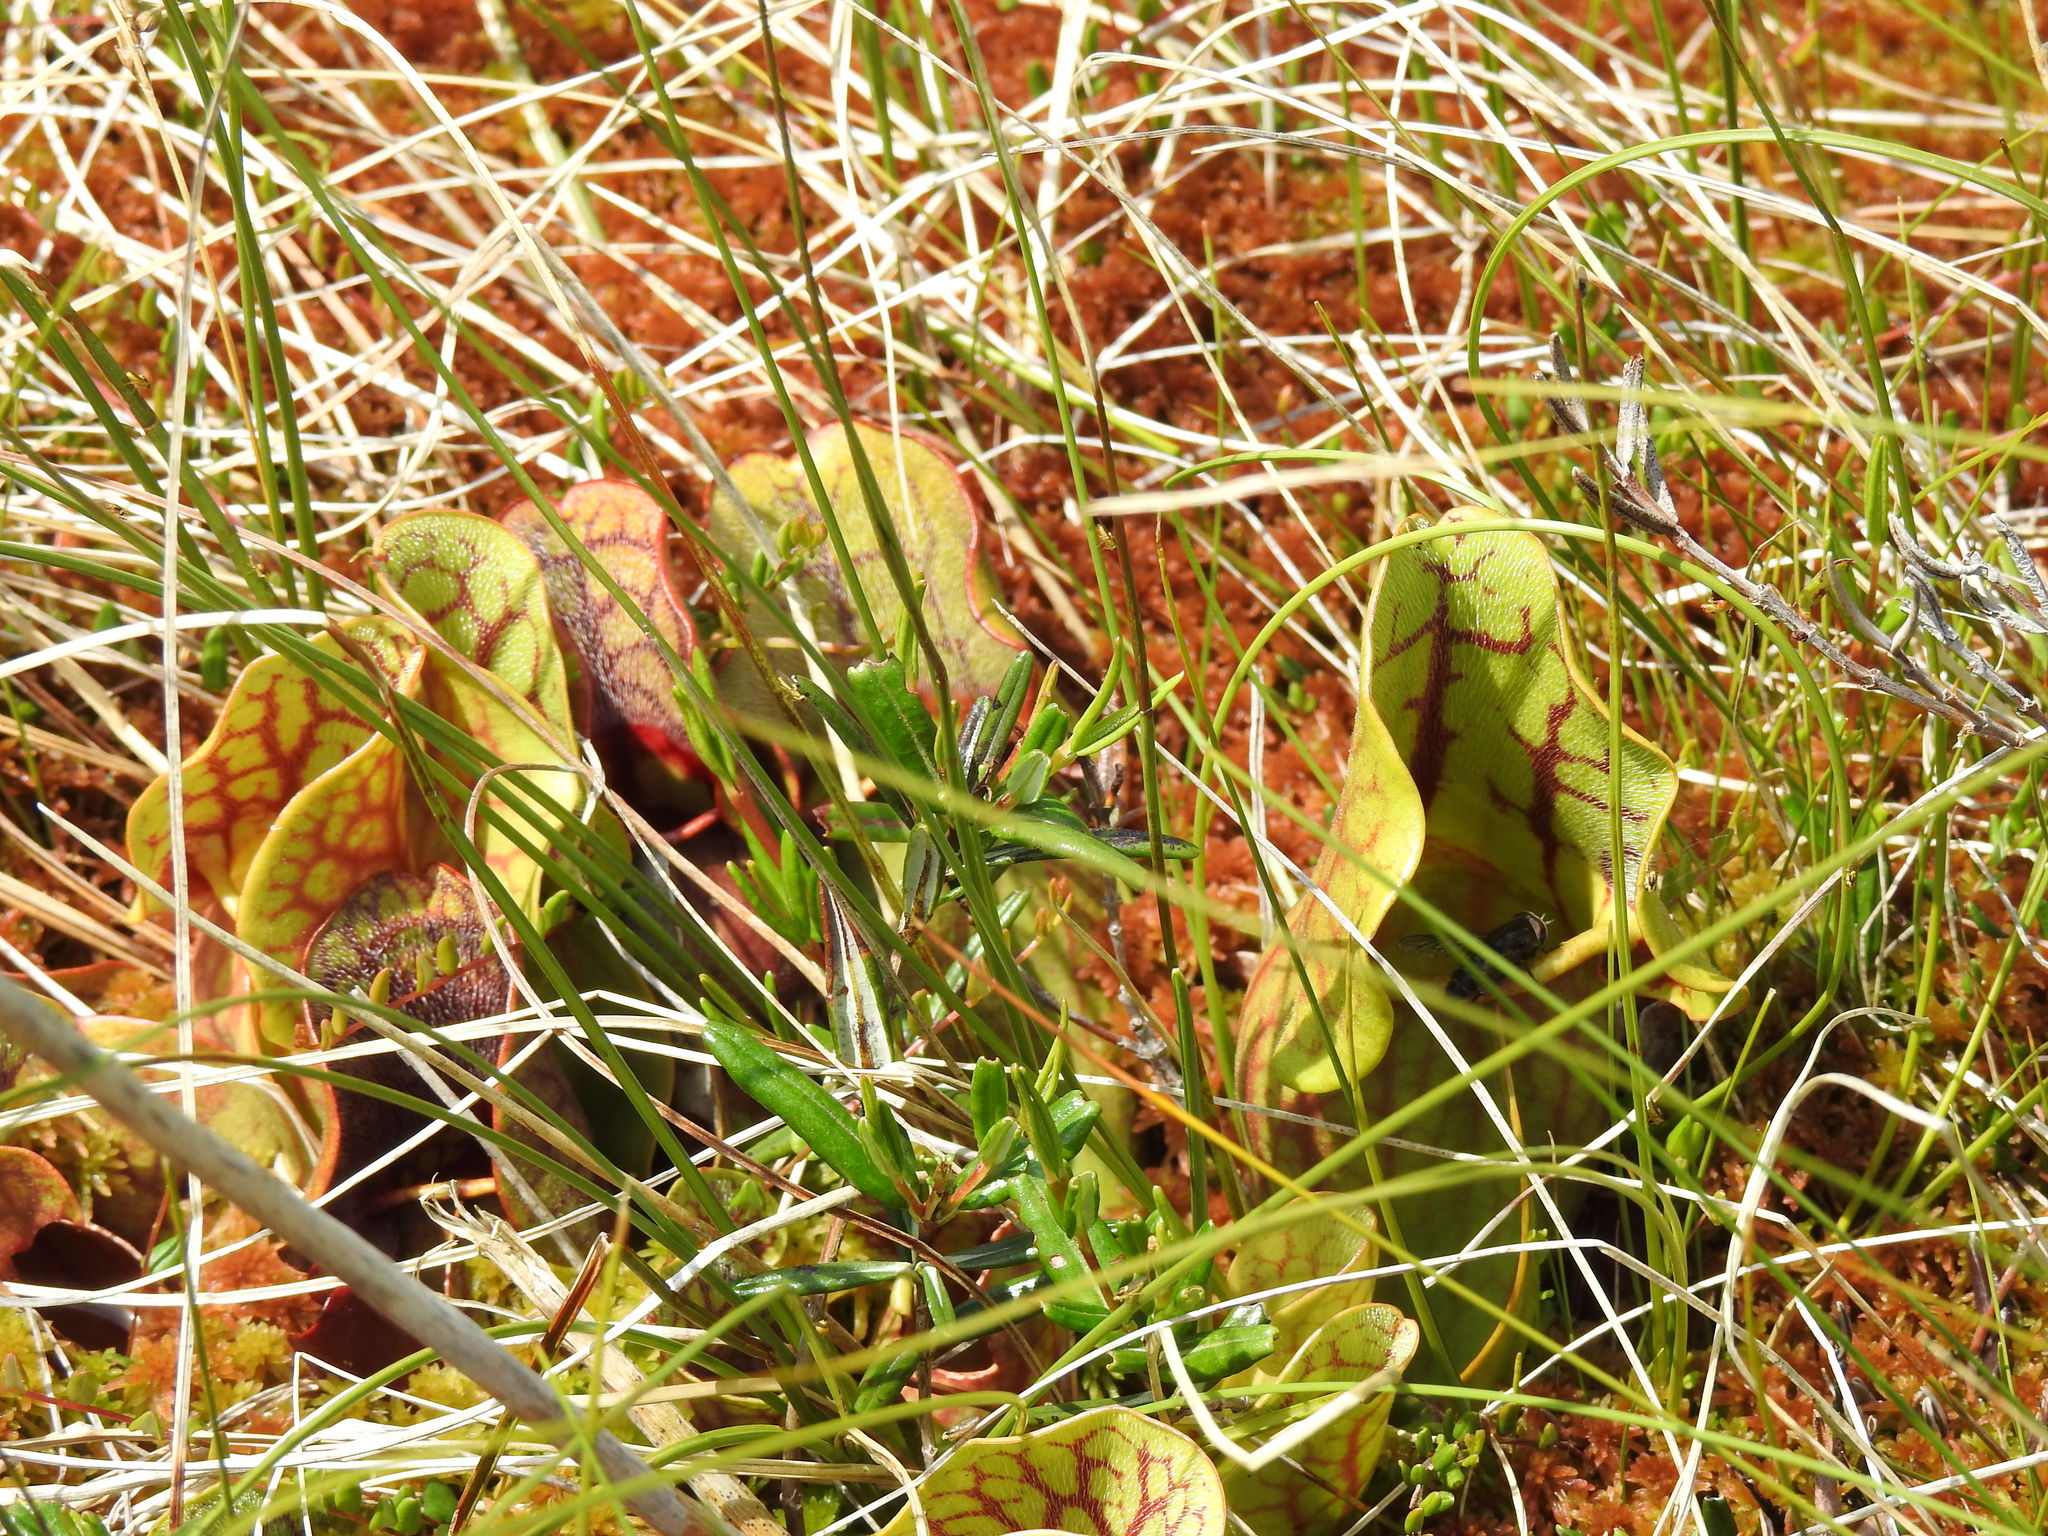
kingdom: Plantae
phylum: Tracheophyta
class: Magnoliopsida
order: Ericales
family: Sarraceniaceae
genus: Sarracenia
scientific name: Sarracenia purpurea
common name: Pitcherplant
